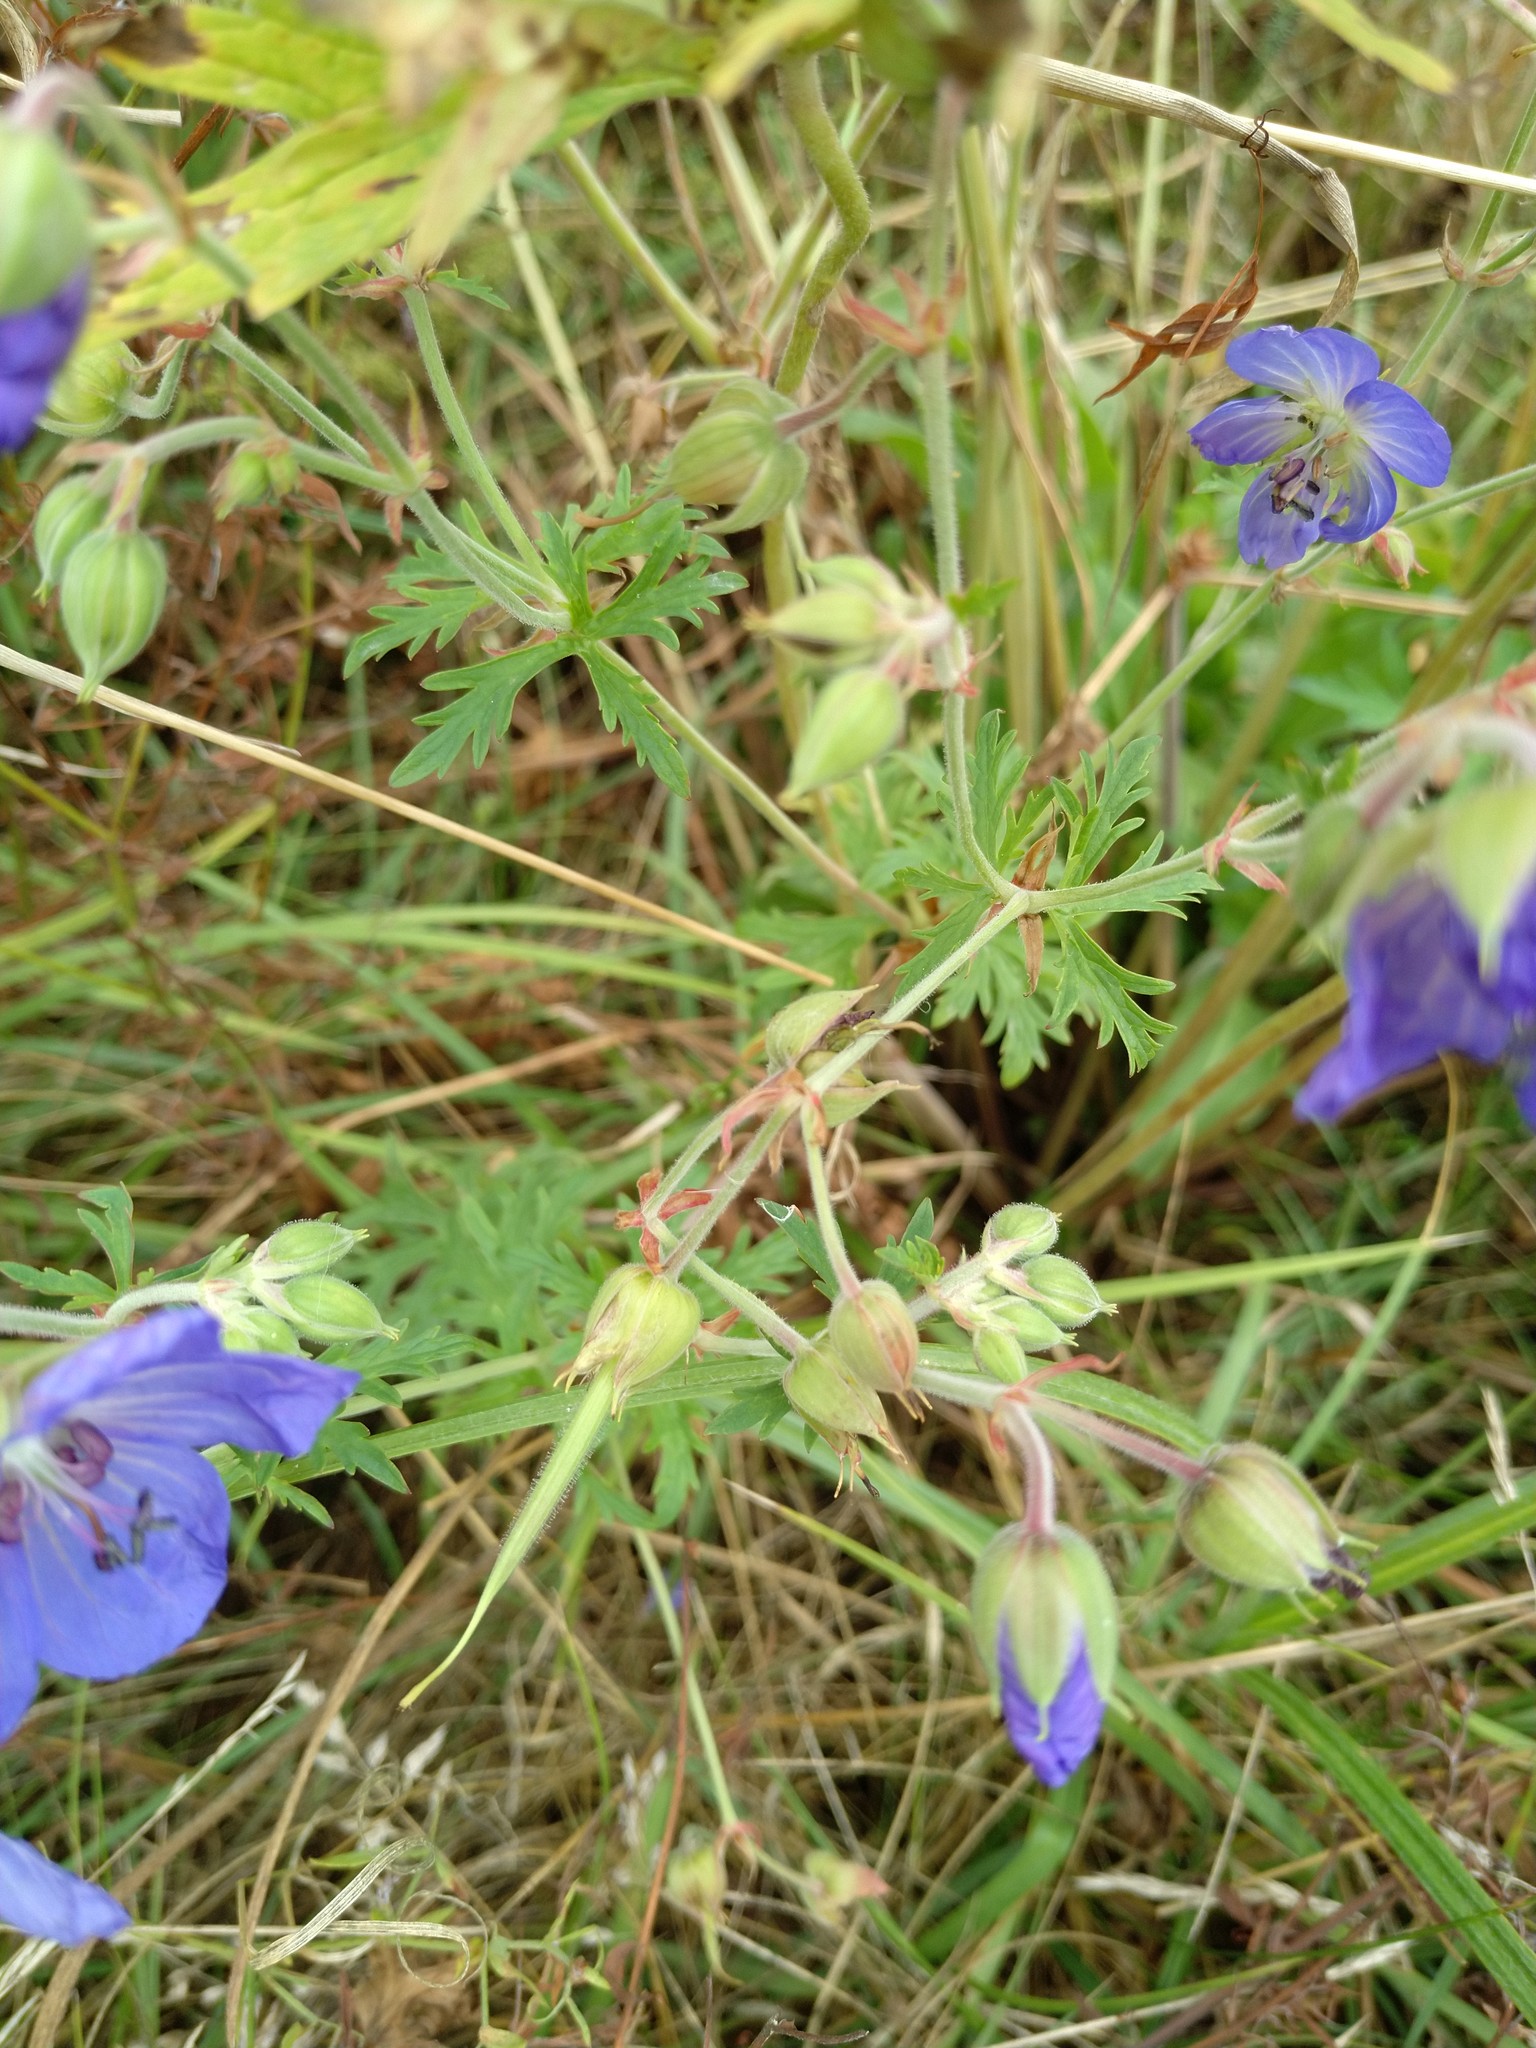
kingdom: Plantae
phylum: Tracheophyta
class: Magnoliopsida
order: Geraniales
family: Geraniaceae
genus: Geranium
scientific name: Geranium pratense
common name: Meadow crane's-bill
